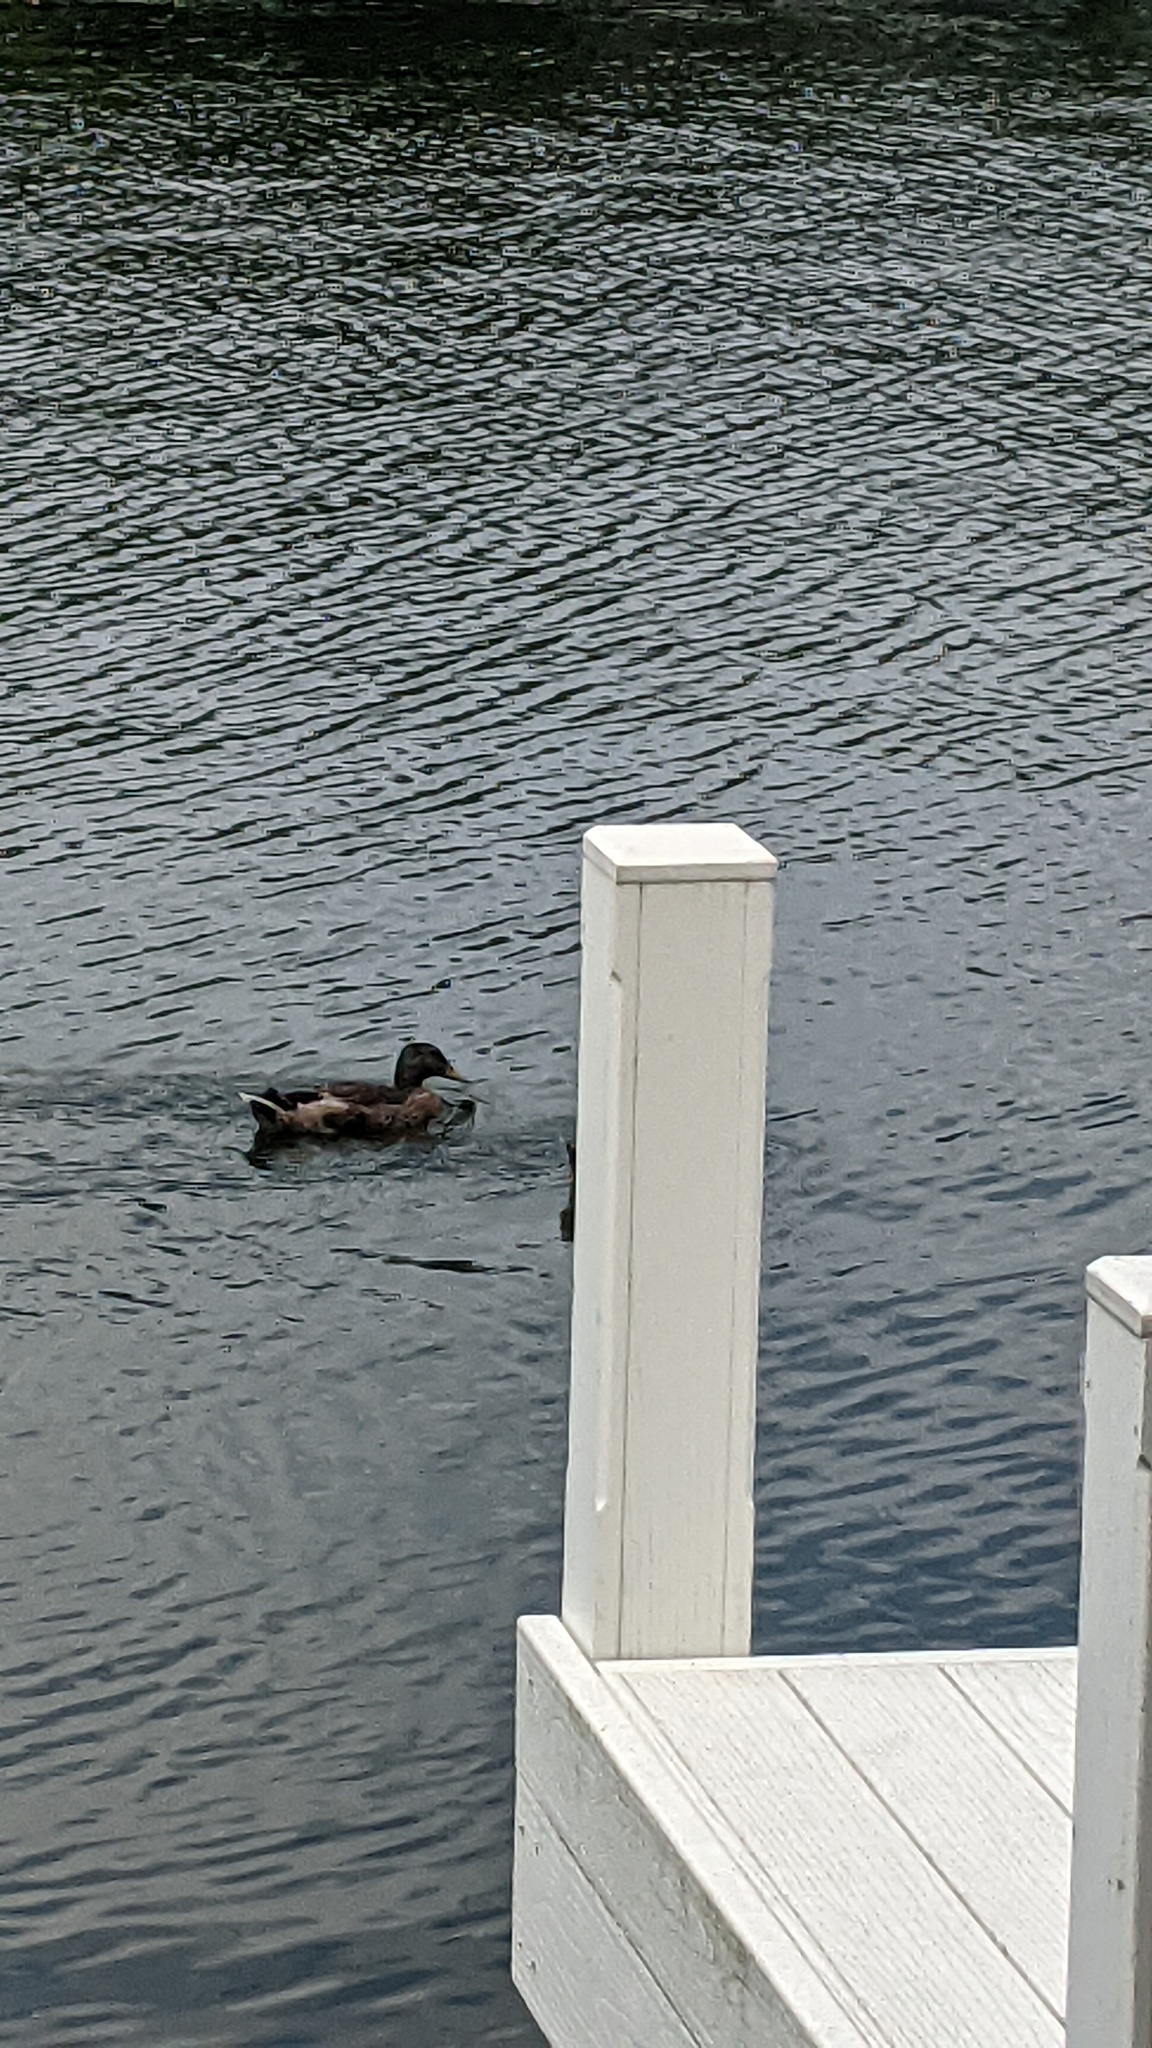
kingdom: Animalia
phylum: Chordata
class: Aves
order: Anseriformes
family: Anatidae
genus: Anas
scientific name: Anas platyrhynchos
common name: Mallard
